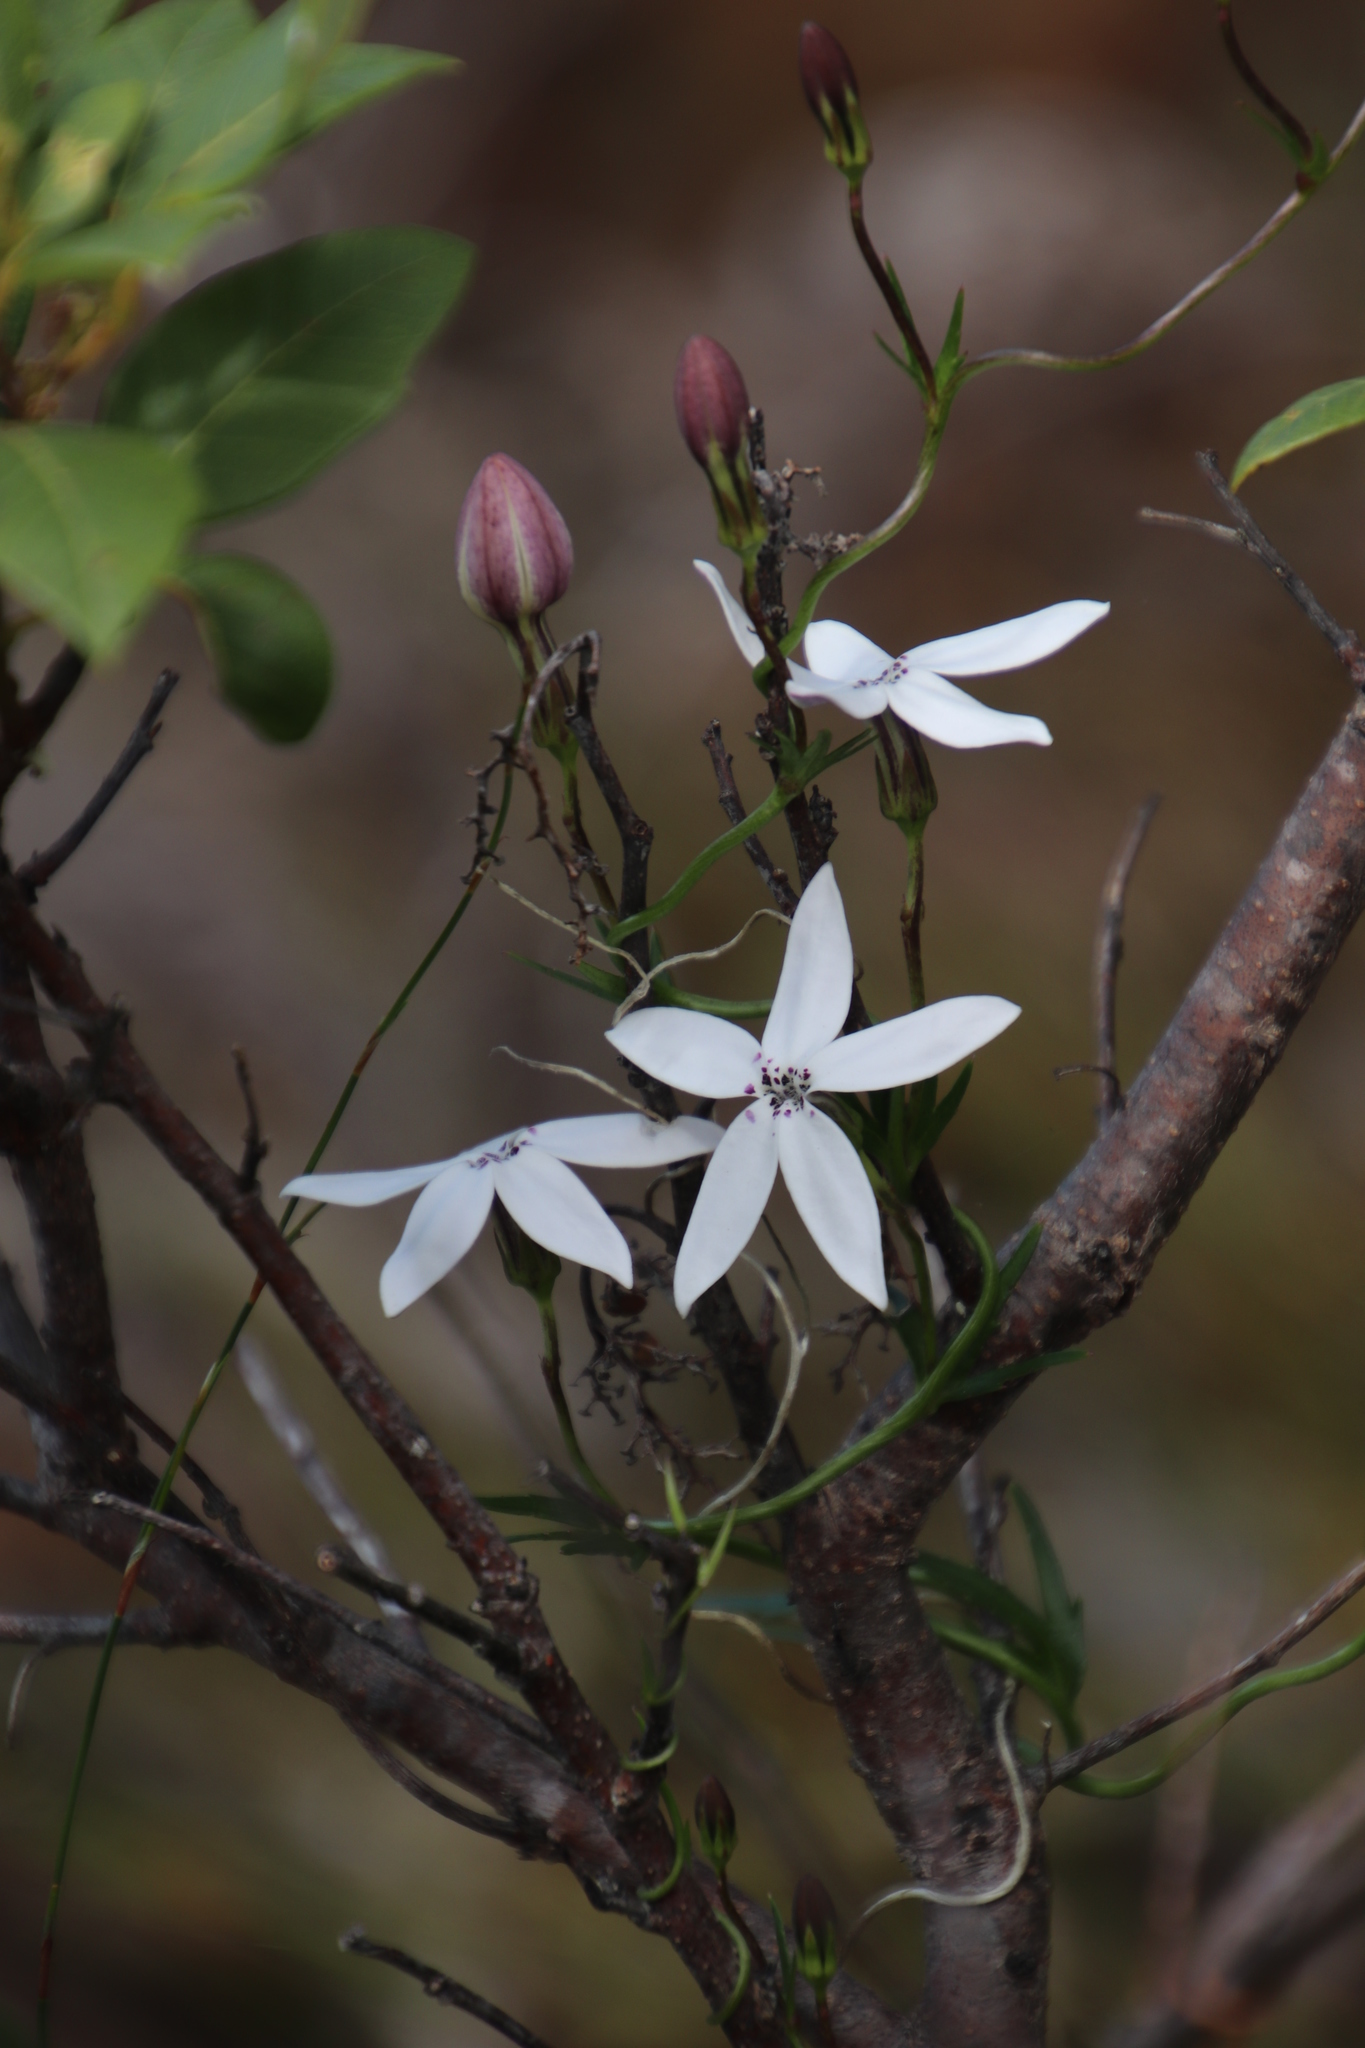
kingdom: Plantae
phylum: Tracheophyta
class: Magnoliopsida
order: Asterales
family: Campanulaceae
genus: Cyphia
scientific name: Cyphia volubilis
